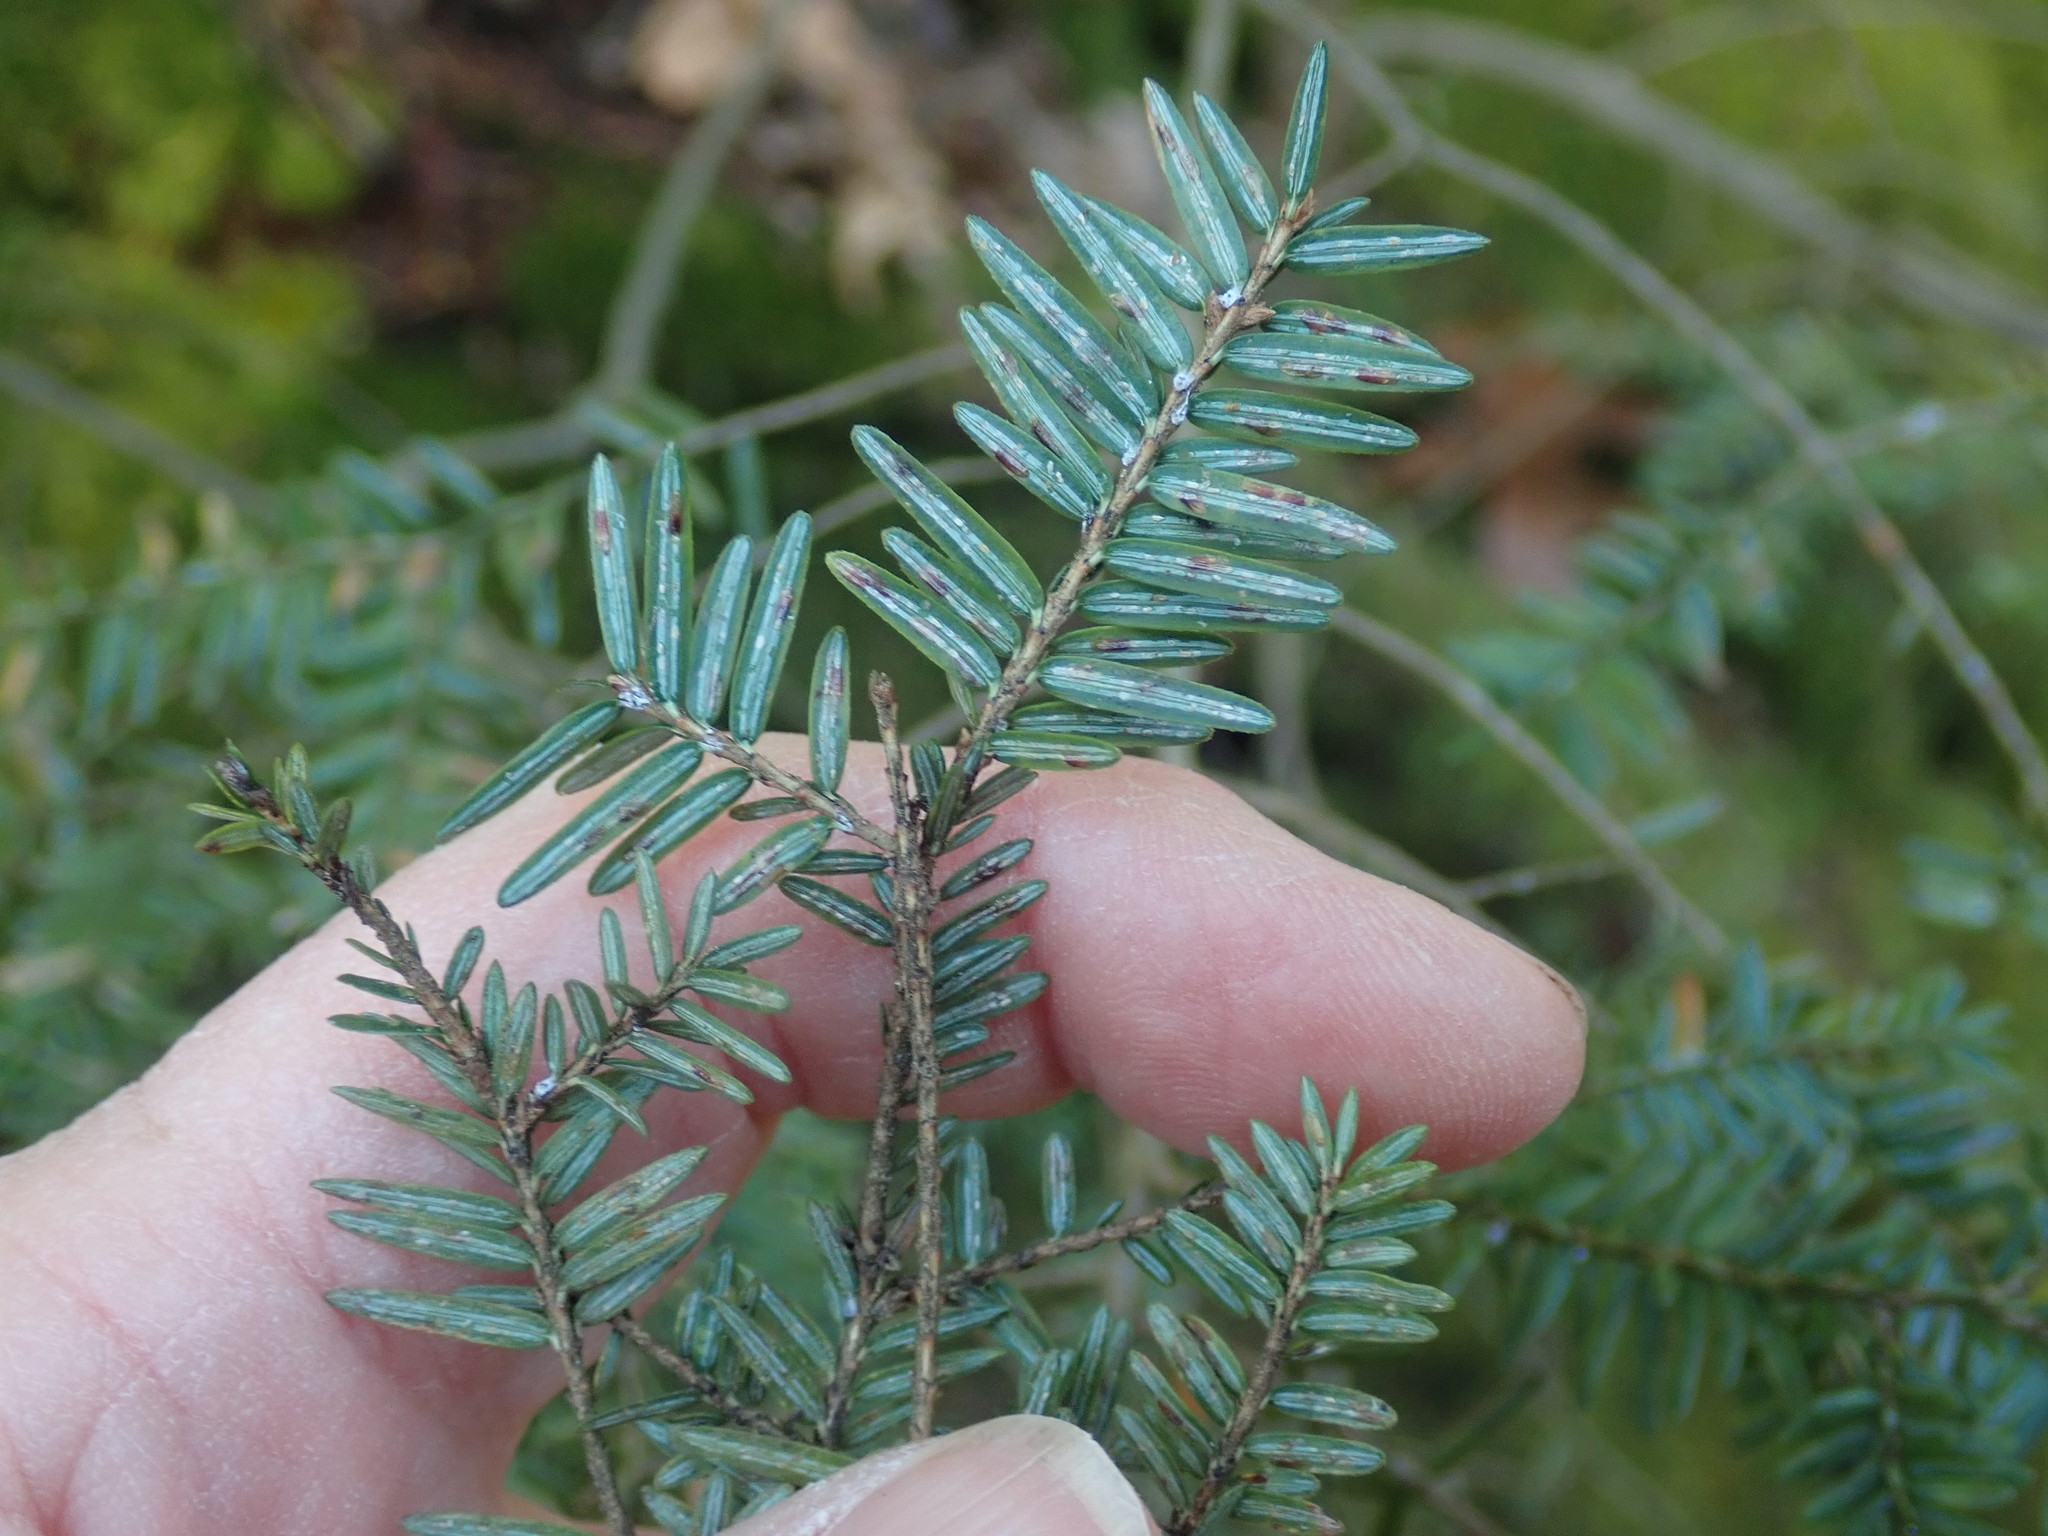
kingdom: Plantae
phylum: Tracheophyta
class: Pinopsida
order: Pinales
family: Pinaceae
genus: Tsuga
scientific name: Tsuga canadensis
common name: Eastern hemlock
